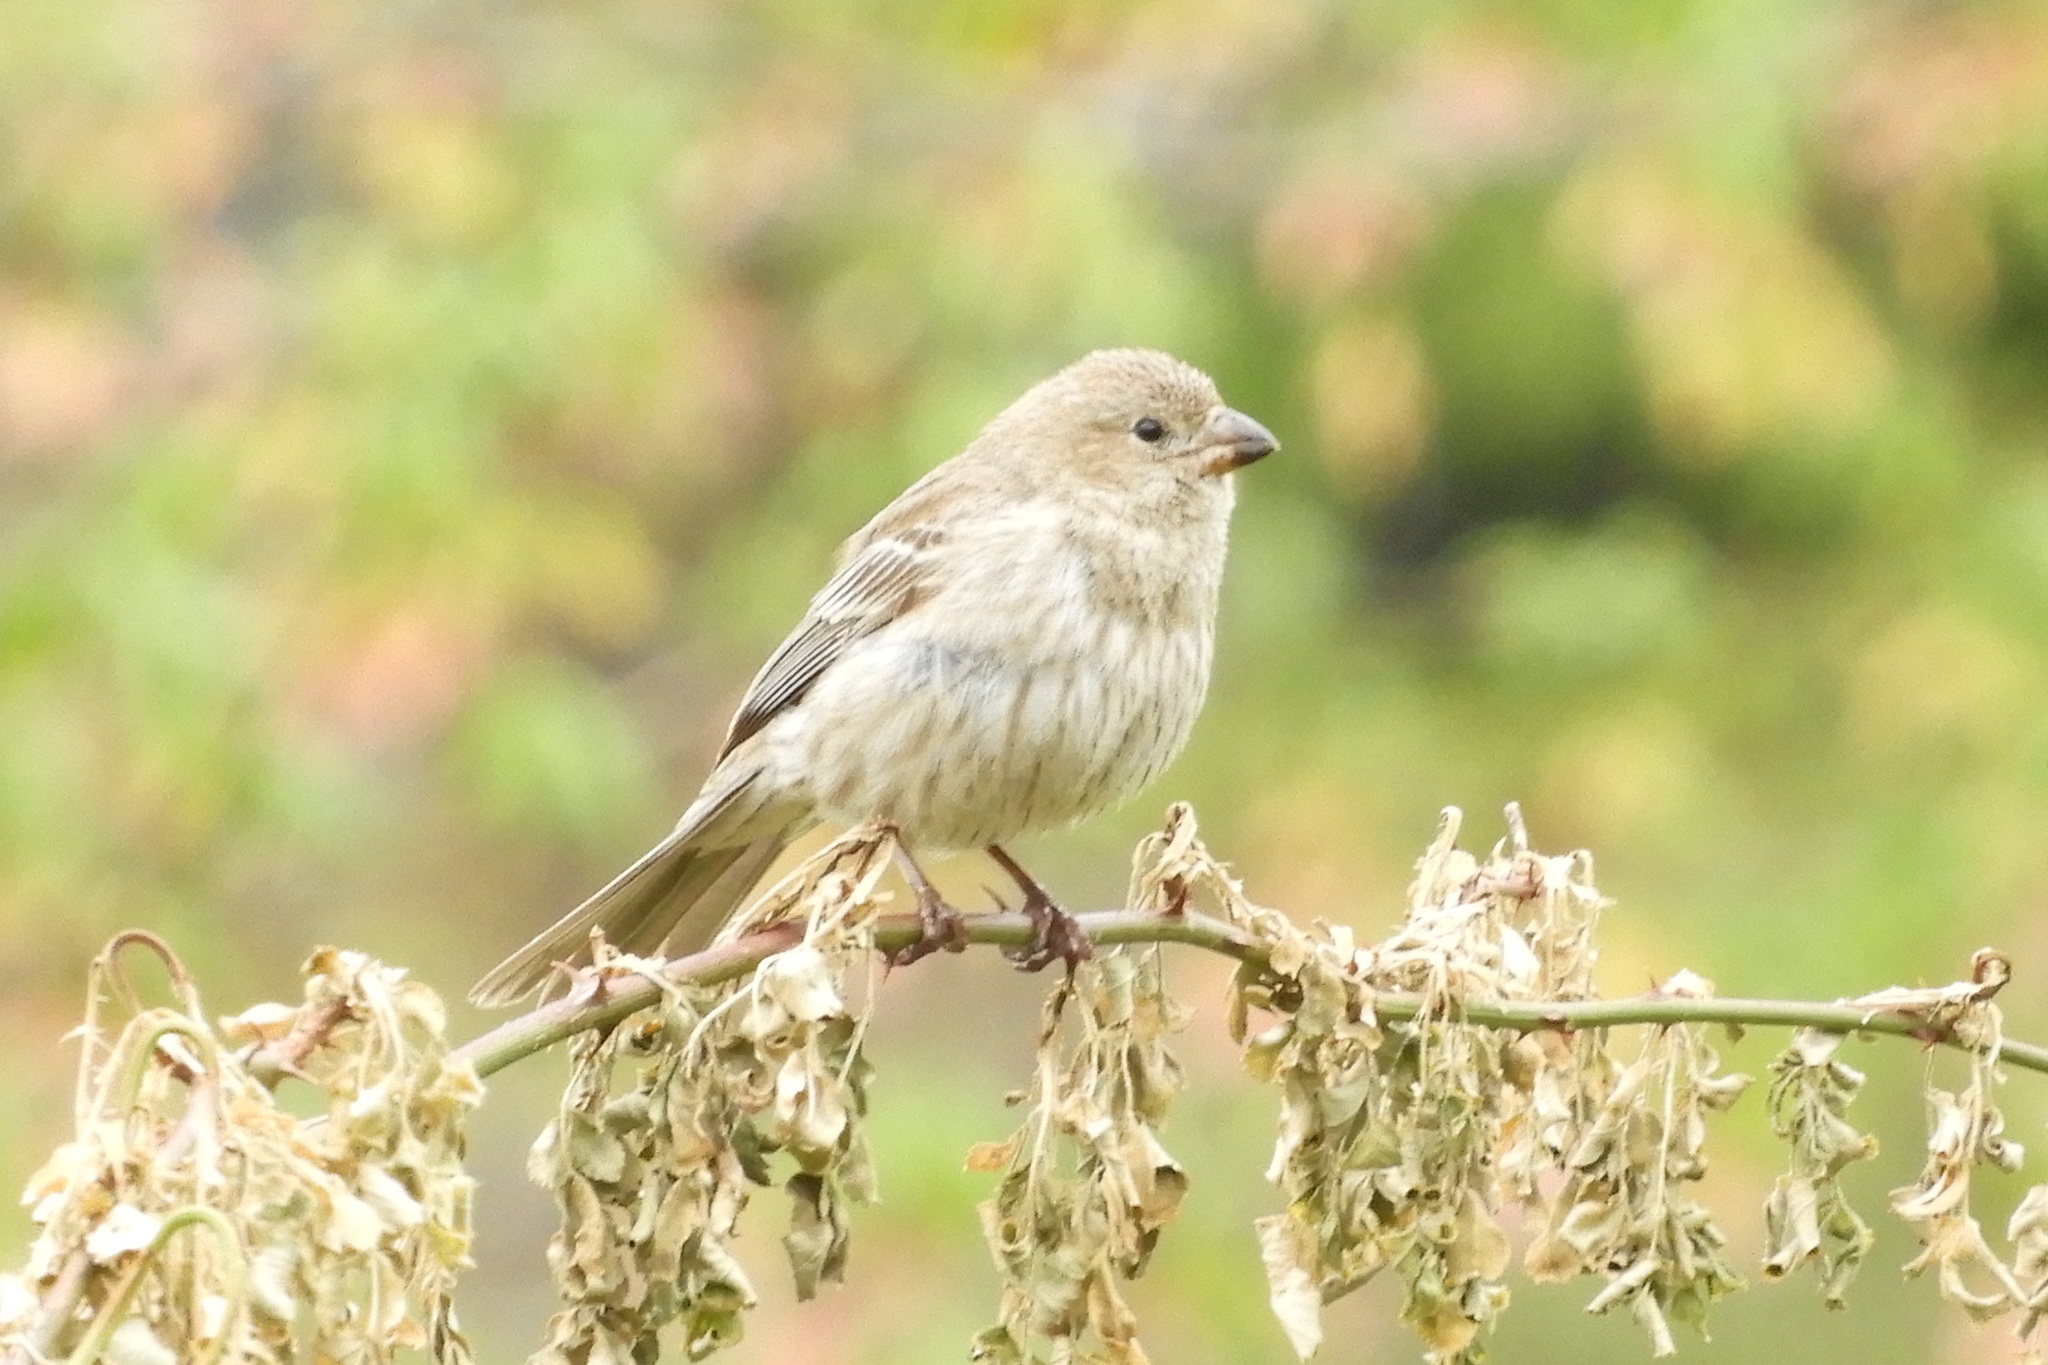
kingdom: Animalia
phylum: Chordata
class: Aves
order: Passeriformes
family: Fringillidae
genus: Haemorhous
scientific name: Haemorhous mexicanus
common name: House finch
